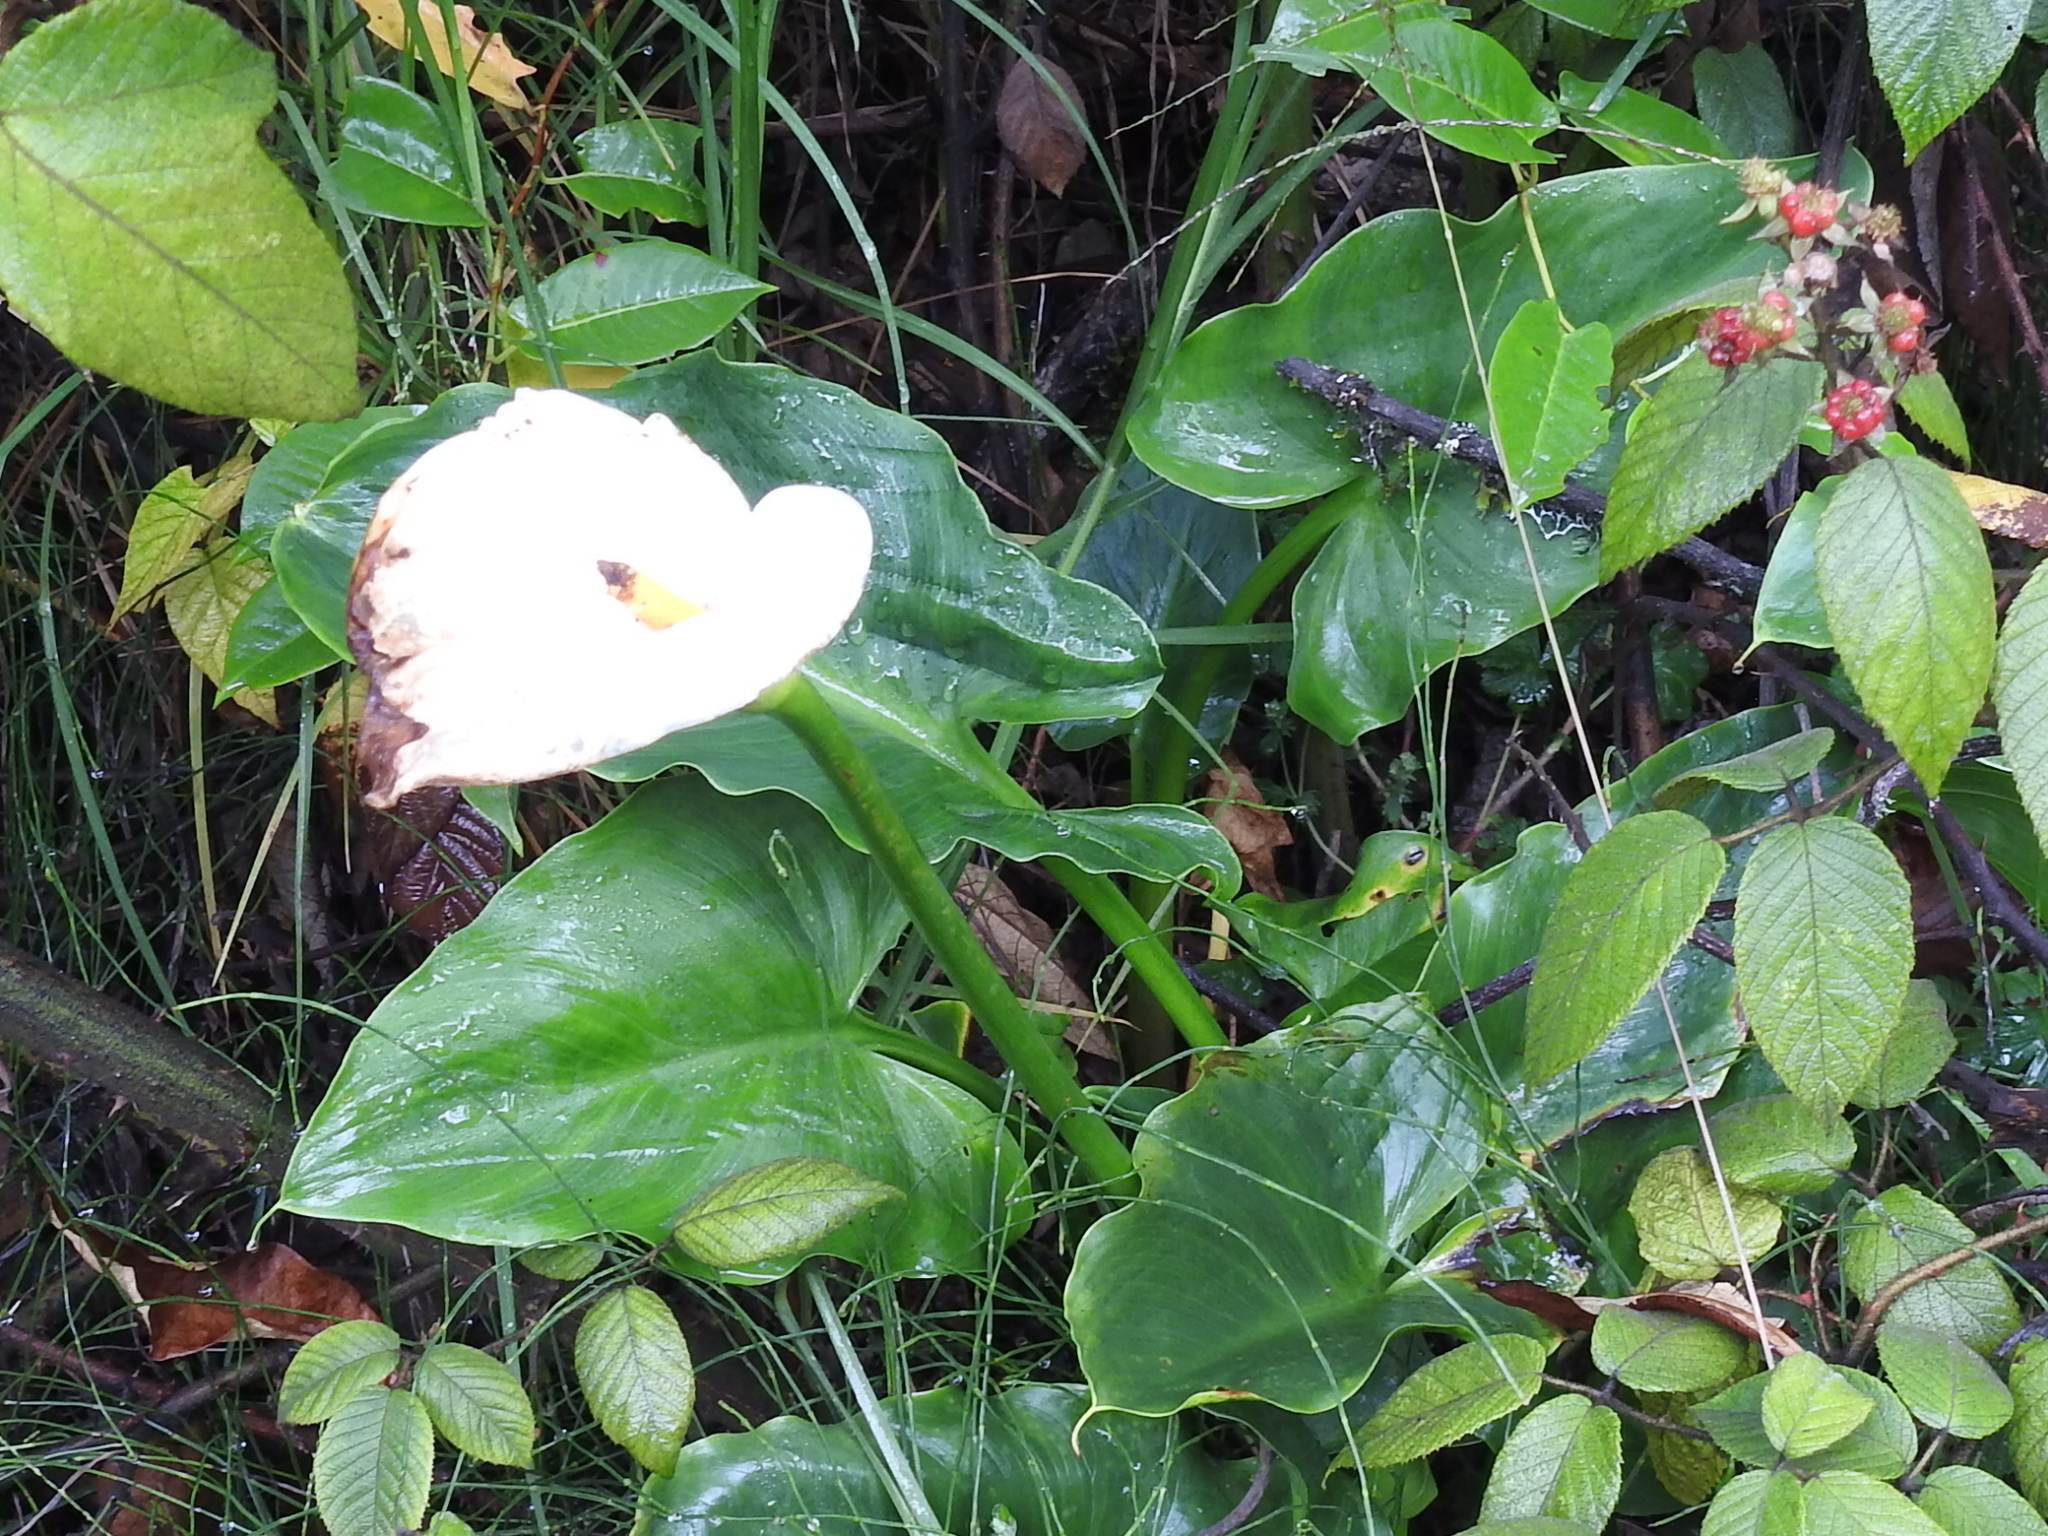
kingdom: Plantae
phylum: Tracheophyta
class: Liliopsida
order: Alismatales
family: Araceae
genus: Zantedeschia
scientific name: Zantedeschia aethiopica
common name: Altar-lily
